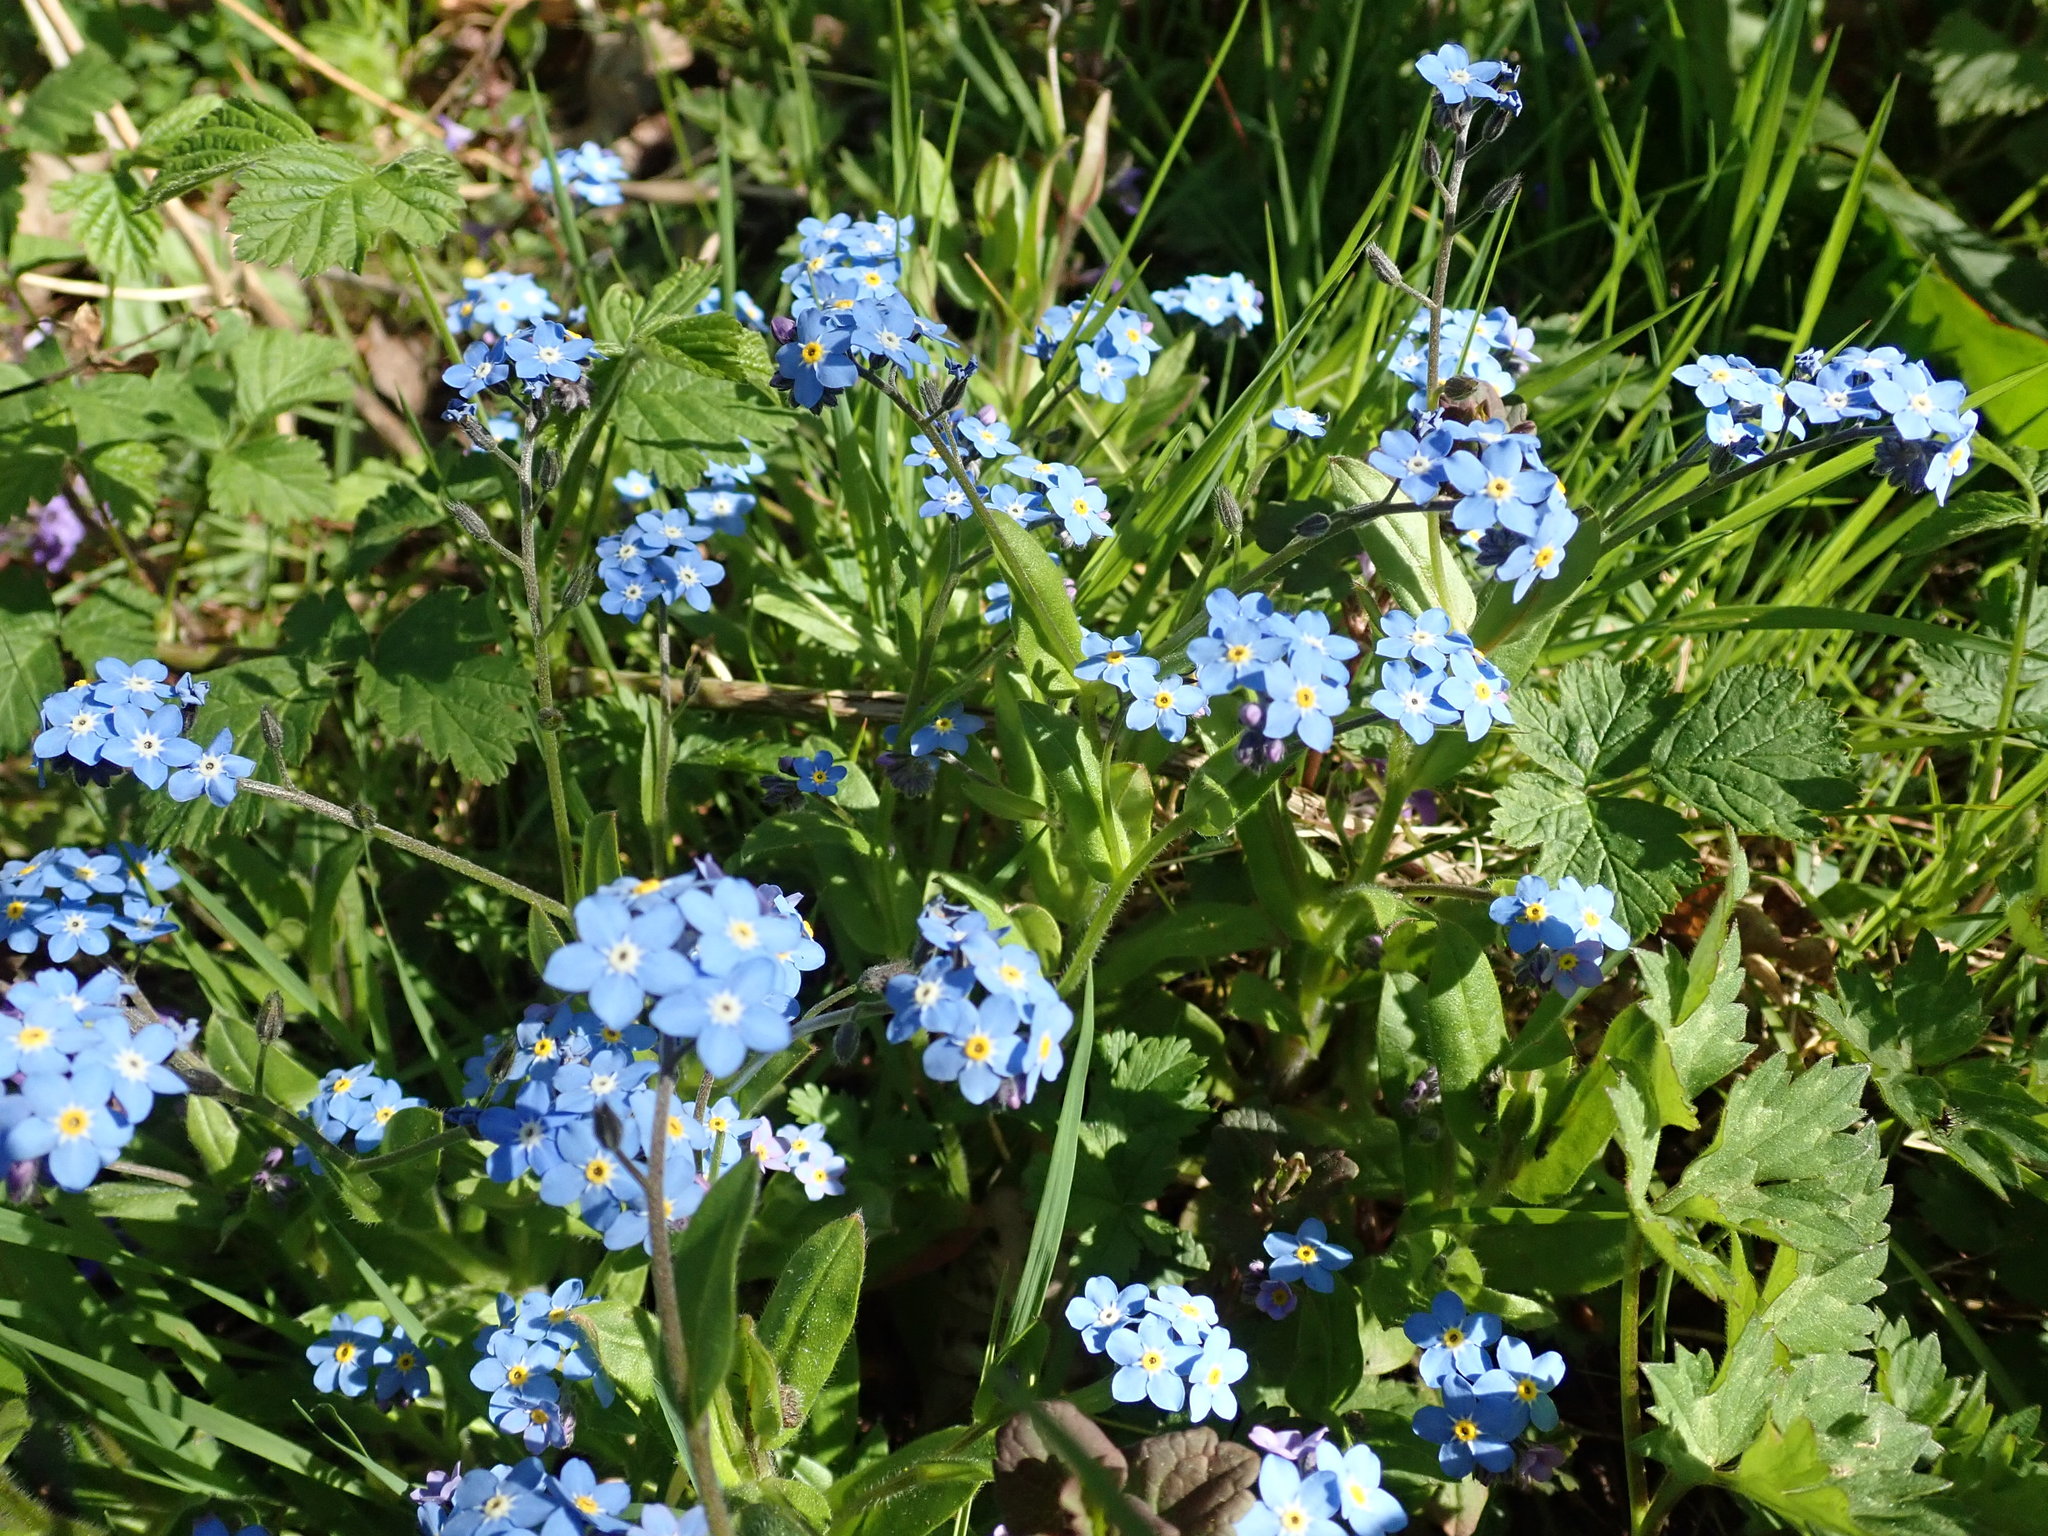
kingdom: Plantae
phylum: Tracheophyta
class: Magnoliopsida
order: Boraginales
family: Boraginaceae
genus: Myosotis
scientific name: Myosotis sylvatica
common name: Wood forget-me-not
